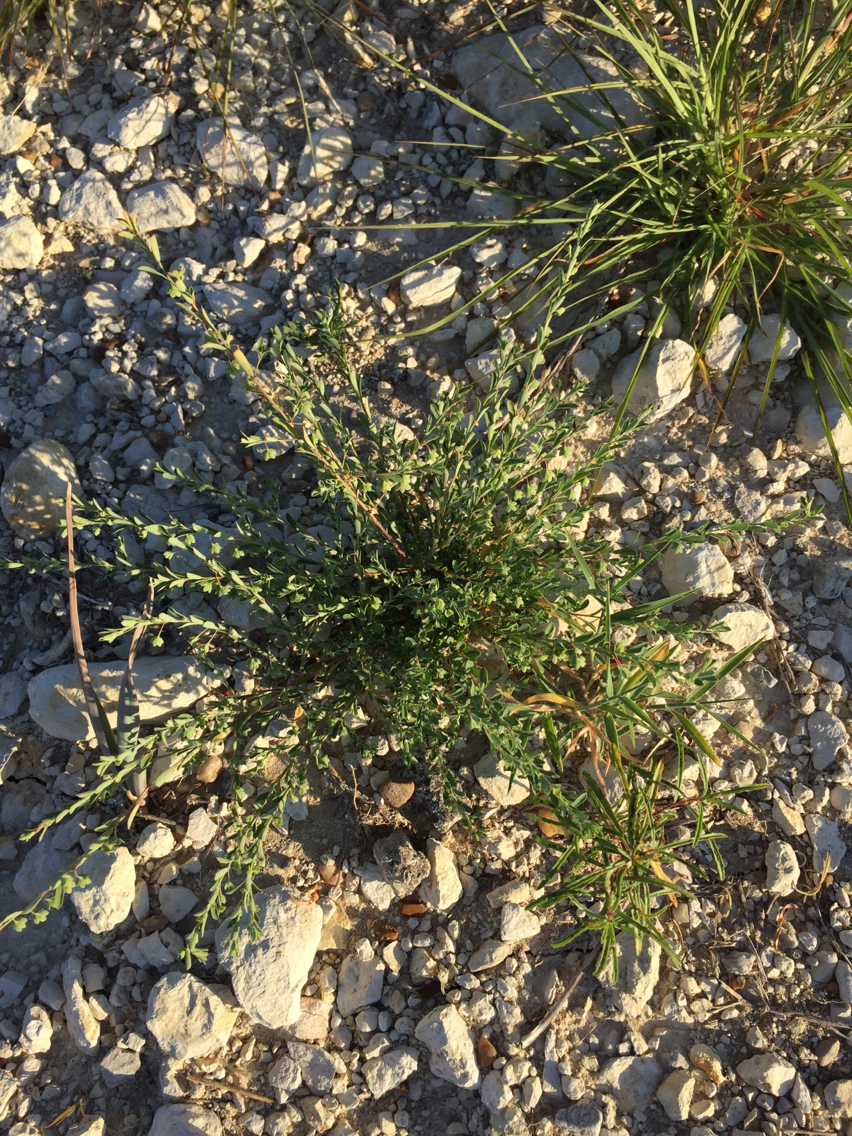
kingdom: Plantae
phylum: Tracheophyta
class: Magnoliopsida
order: Malpighiales
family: Phyllanthaceae
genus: Phyllanthus
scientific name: Phyllanthus polygonoides
